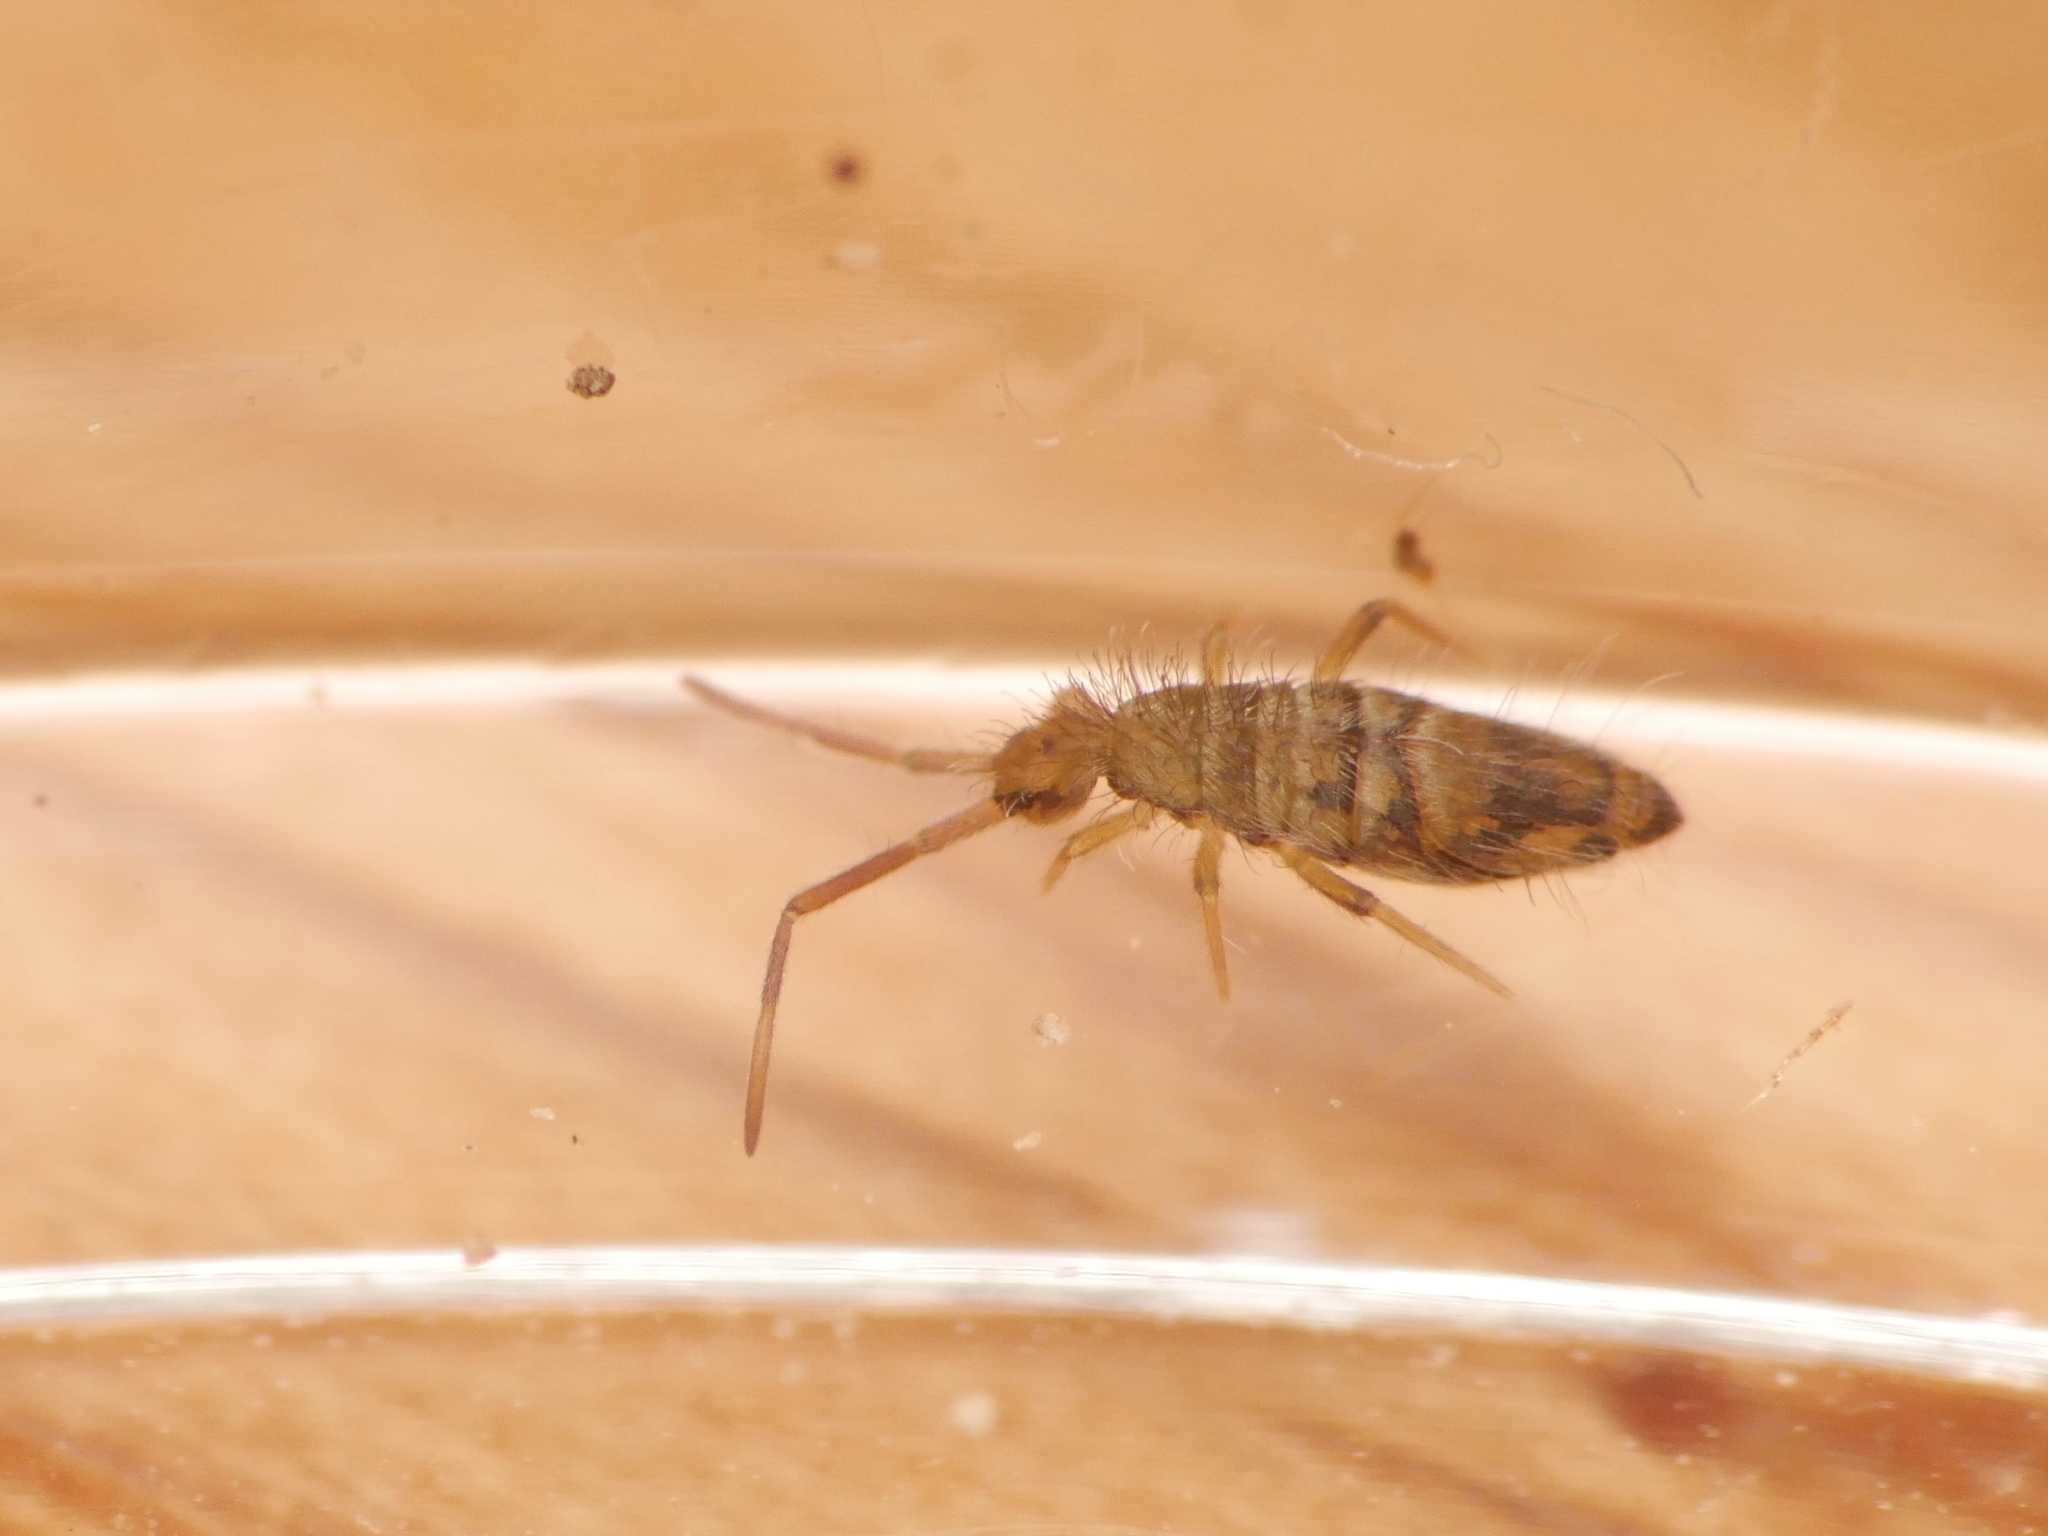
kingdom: Animalia
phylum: Arthropoda
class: Collembola
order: Entomobryomorpha
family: Entomobryidae
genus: Entomobrya
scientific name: Entomobrya nivalis
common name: Cosmopolitan springtail
